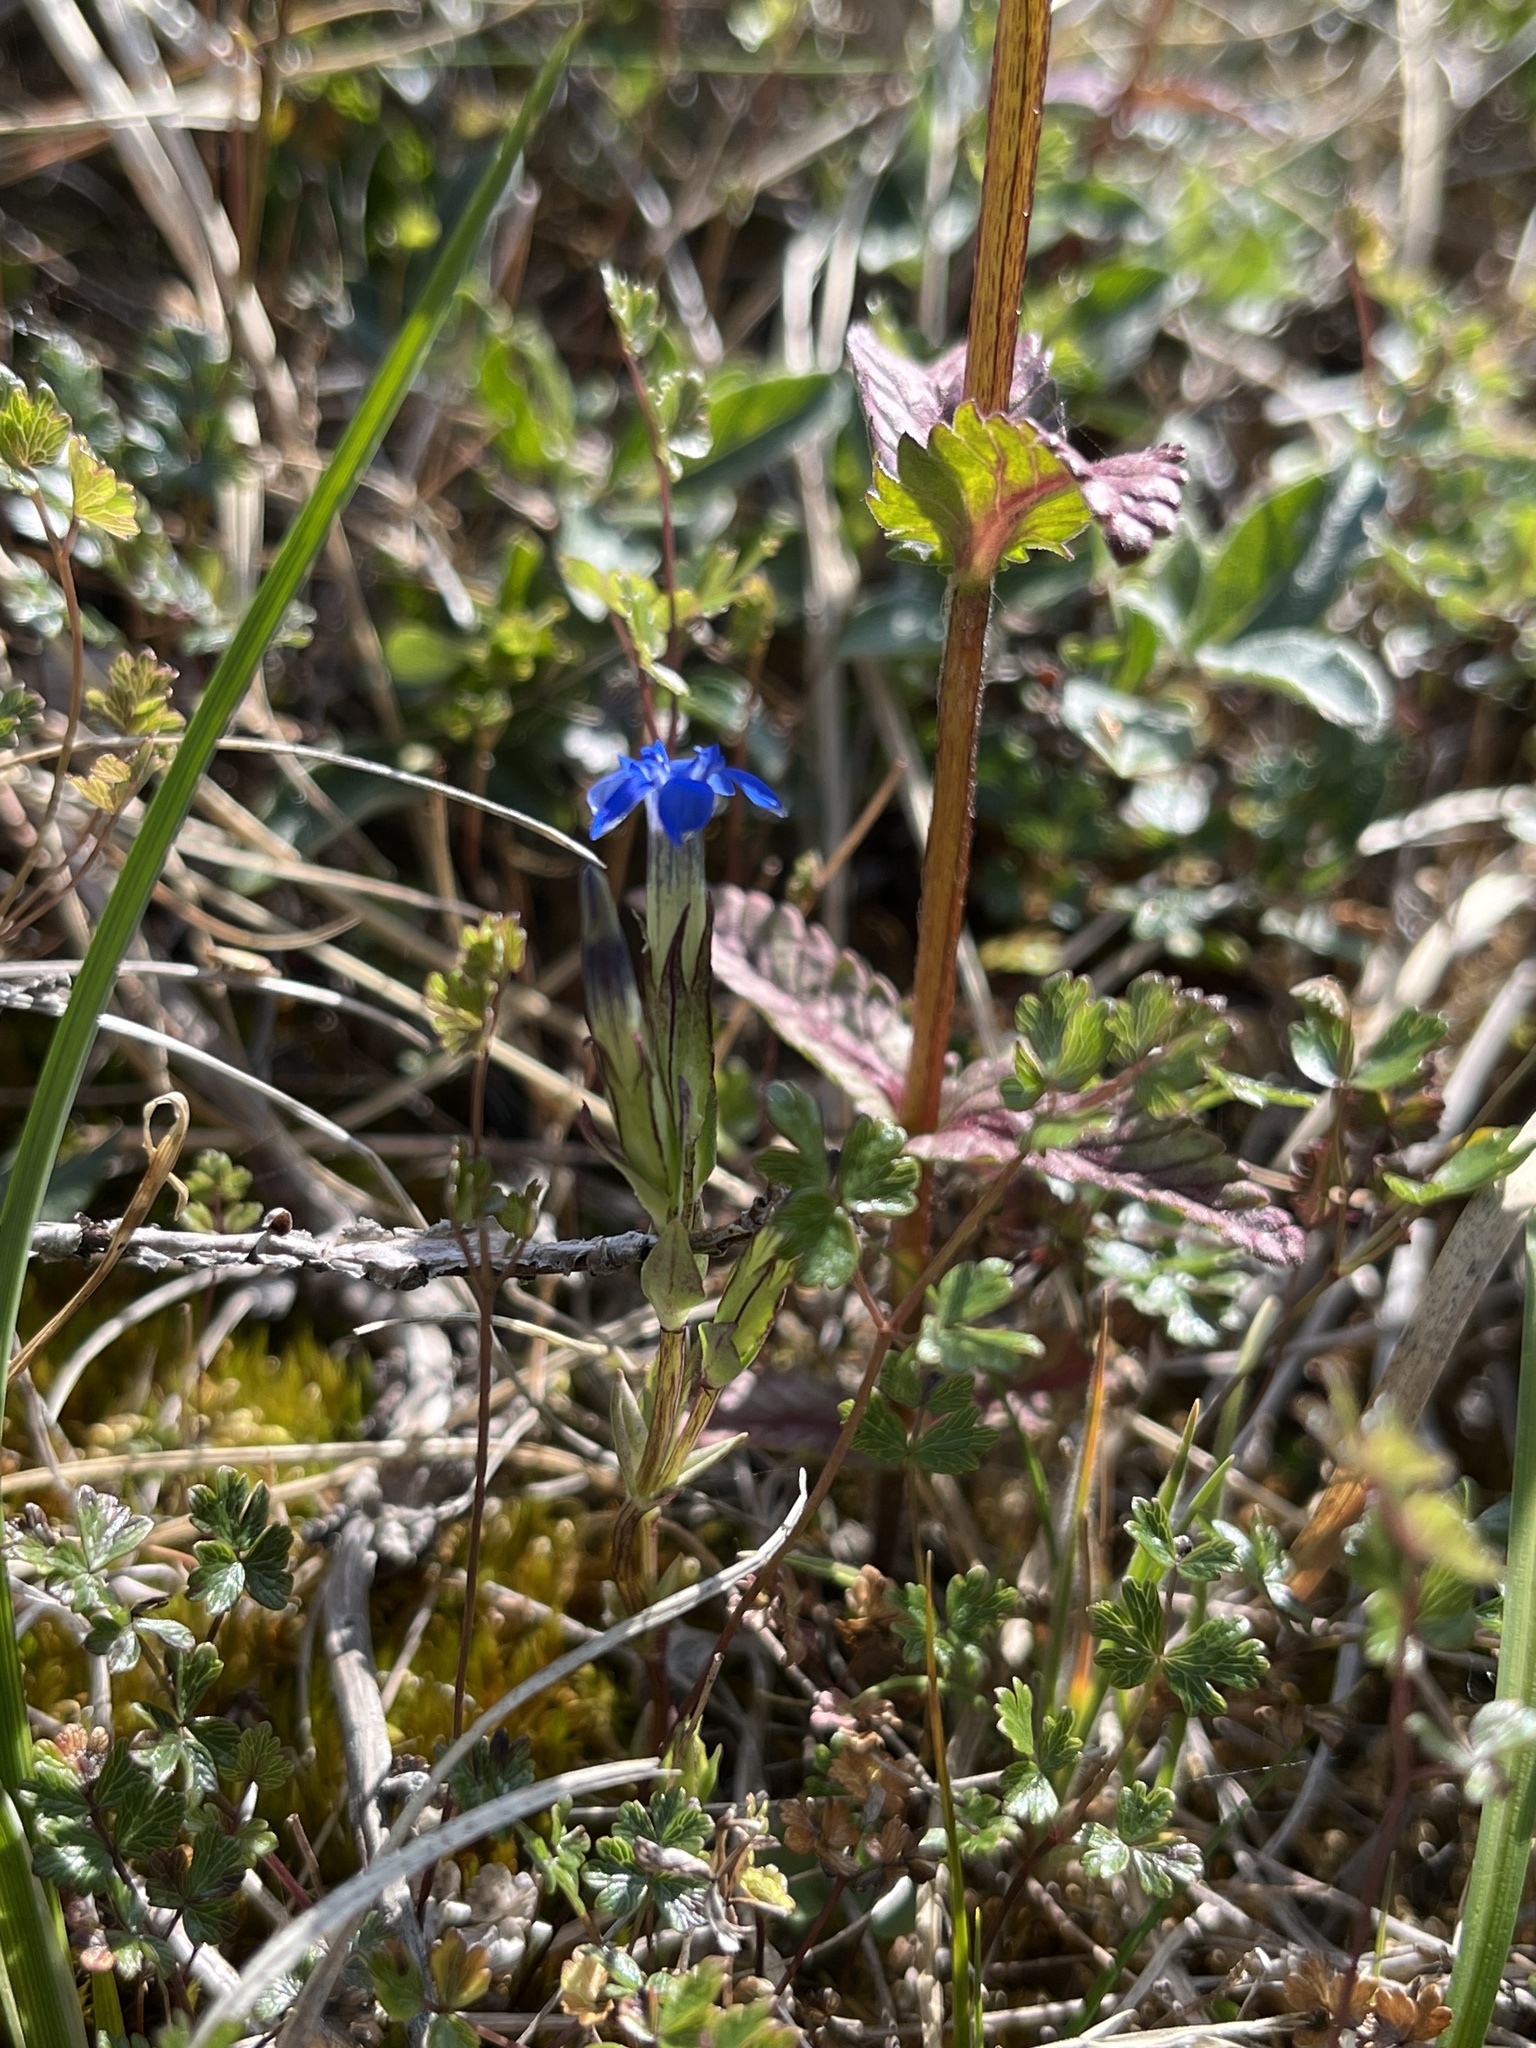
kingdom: Plantae
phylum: Tracheophyta
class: Magnoliopsida
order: Gentianales
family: Gentianaceae
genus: Gentiana
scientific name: Gentiana nivalis
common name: Alpine gentian
